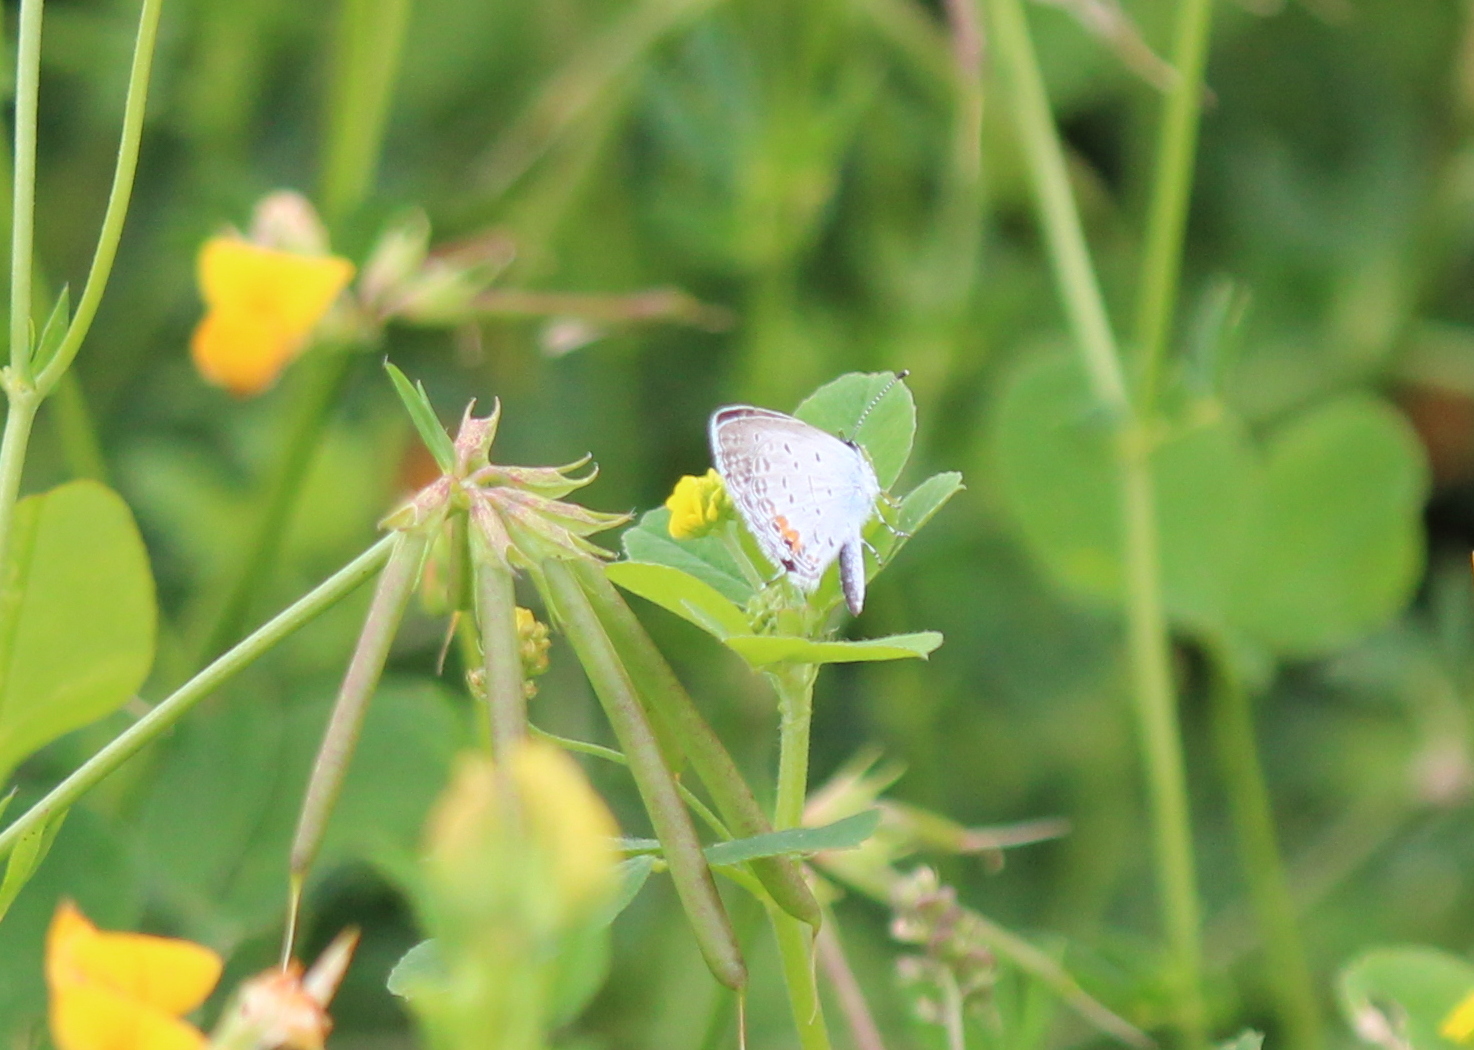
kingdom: Animalia
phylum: Arthropoda
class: Insecta
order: Lepidoptera
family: Lycaenidae
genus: Elkalyce
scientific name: Elkalyce comyntas
